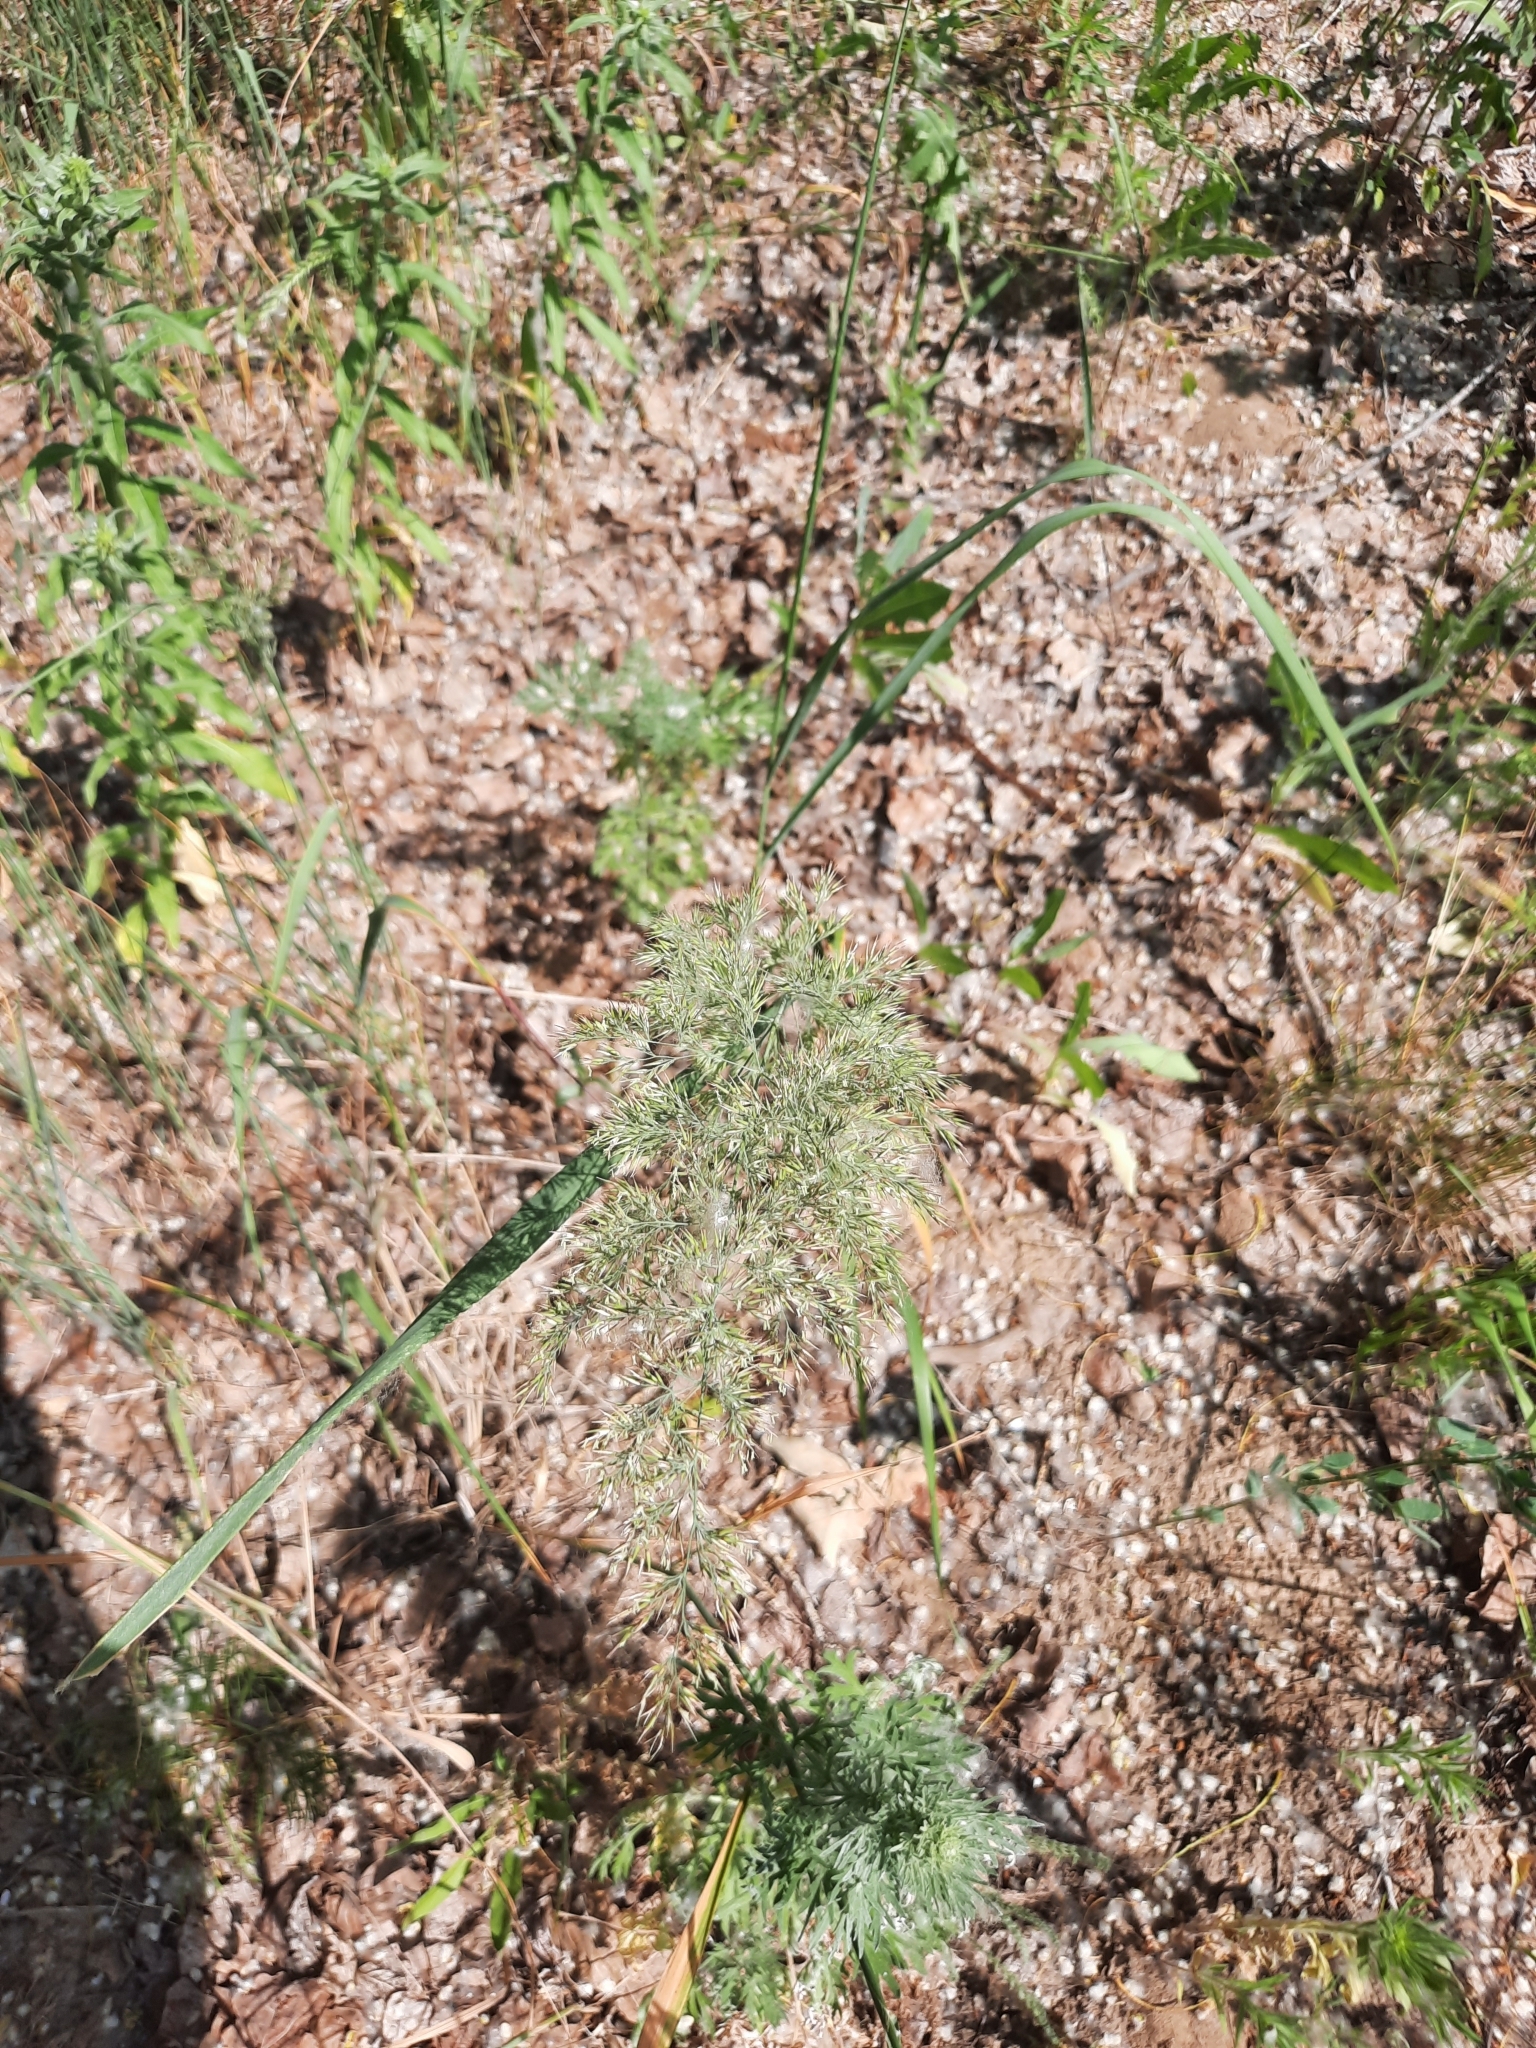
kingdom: Plantae
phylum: Tracheophyta
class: Liliopsida
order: Poales
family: Poaceae
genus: Phragmites
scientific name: Phragmites australis
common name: Common reed
